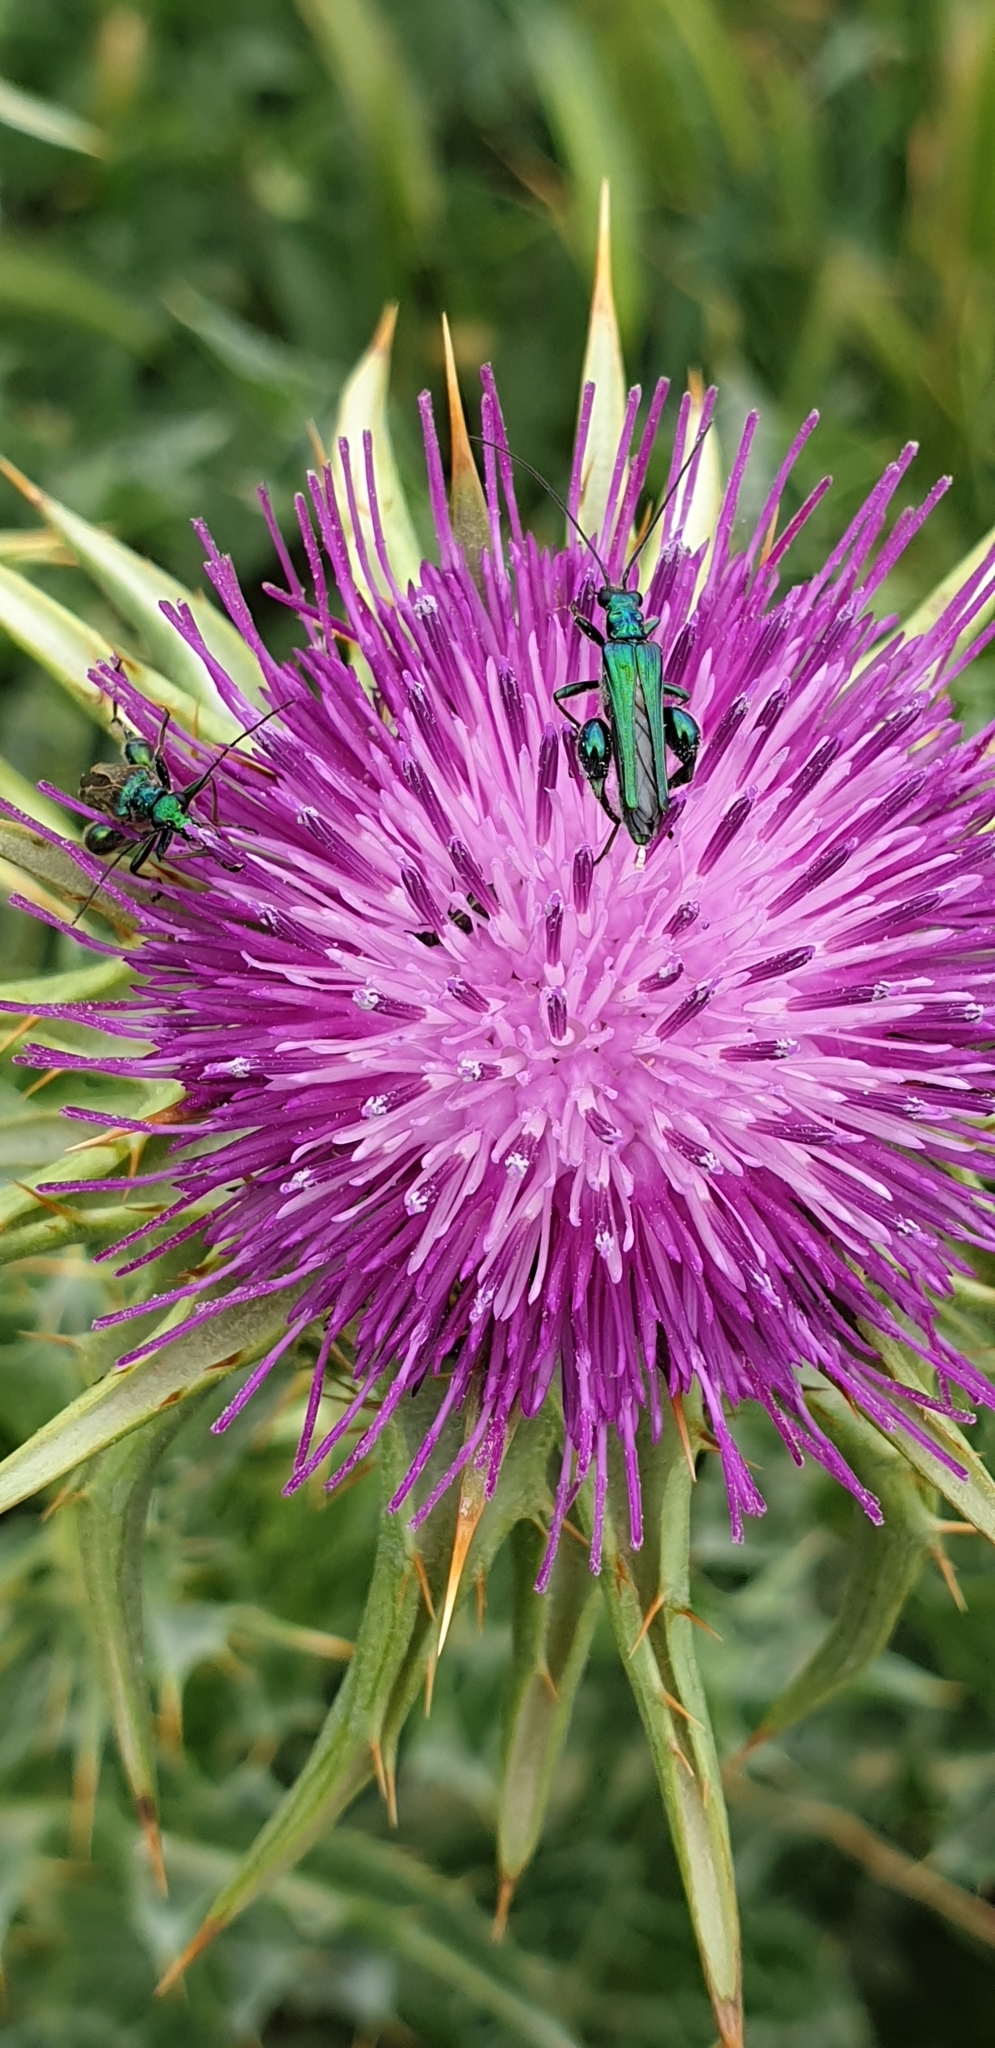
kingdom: Animalia
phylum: Arthropoda
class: Insecta
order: Coleoptera
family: Oedemeridae
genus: Oedemera
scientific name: Oedemera nobilis
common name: Swollen-thighed beetle
